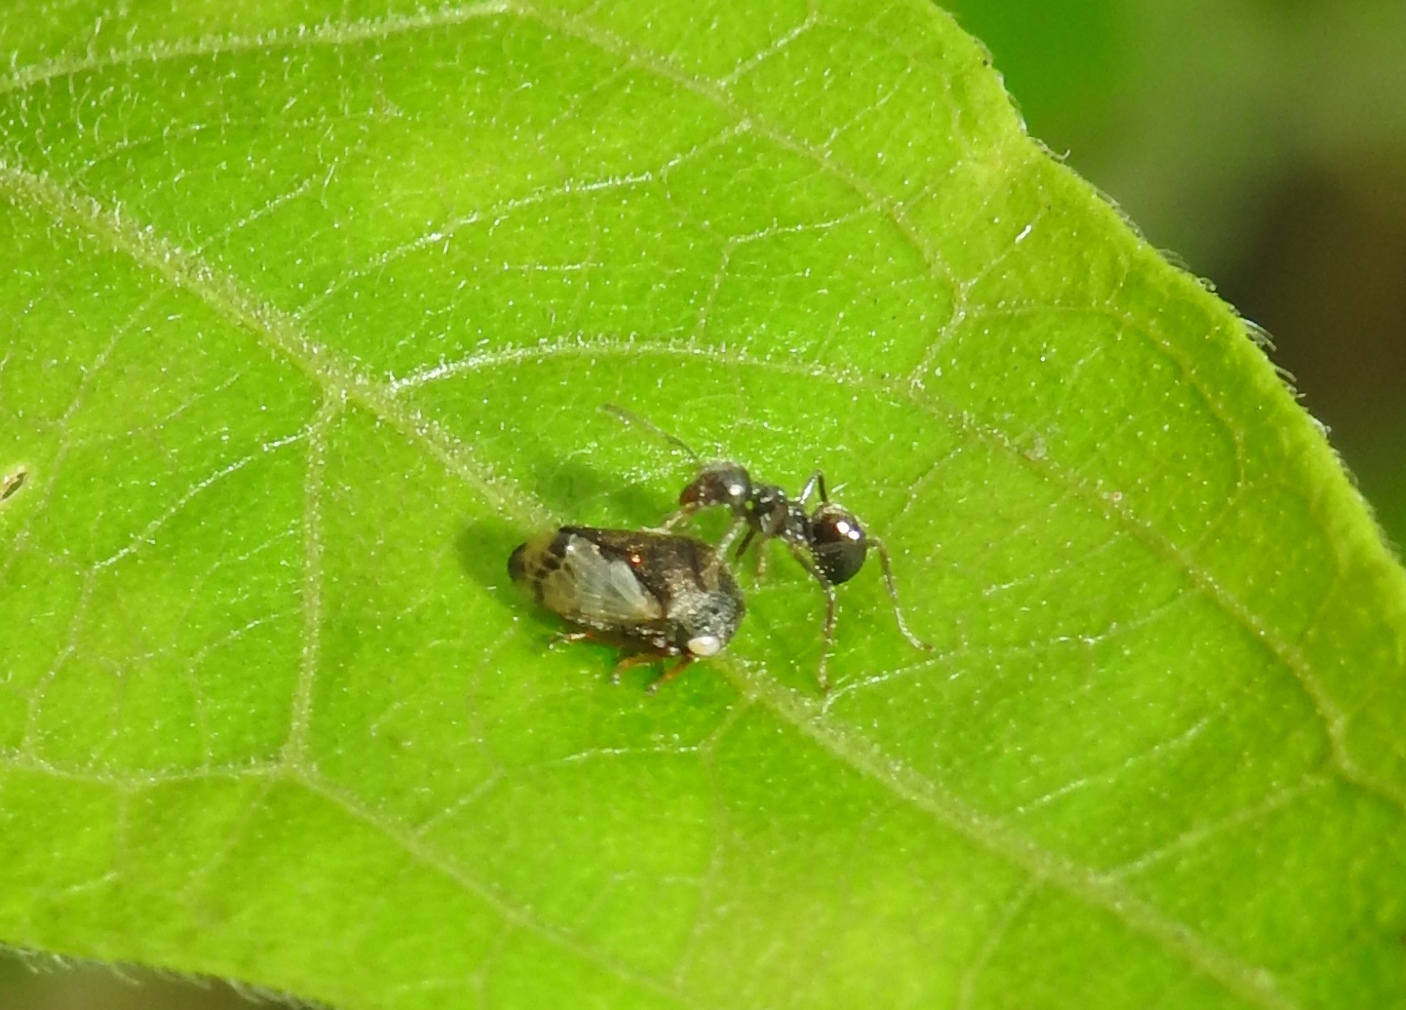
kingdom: Animalia
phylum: Arthropoda
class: Insecta
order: Hymenoptera
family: Formicidae
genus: Dolichoderus
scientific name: Dolichoderus thoracicus
